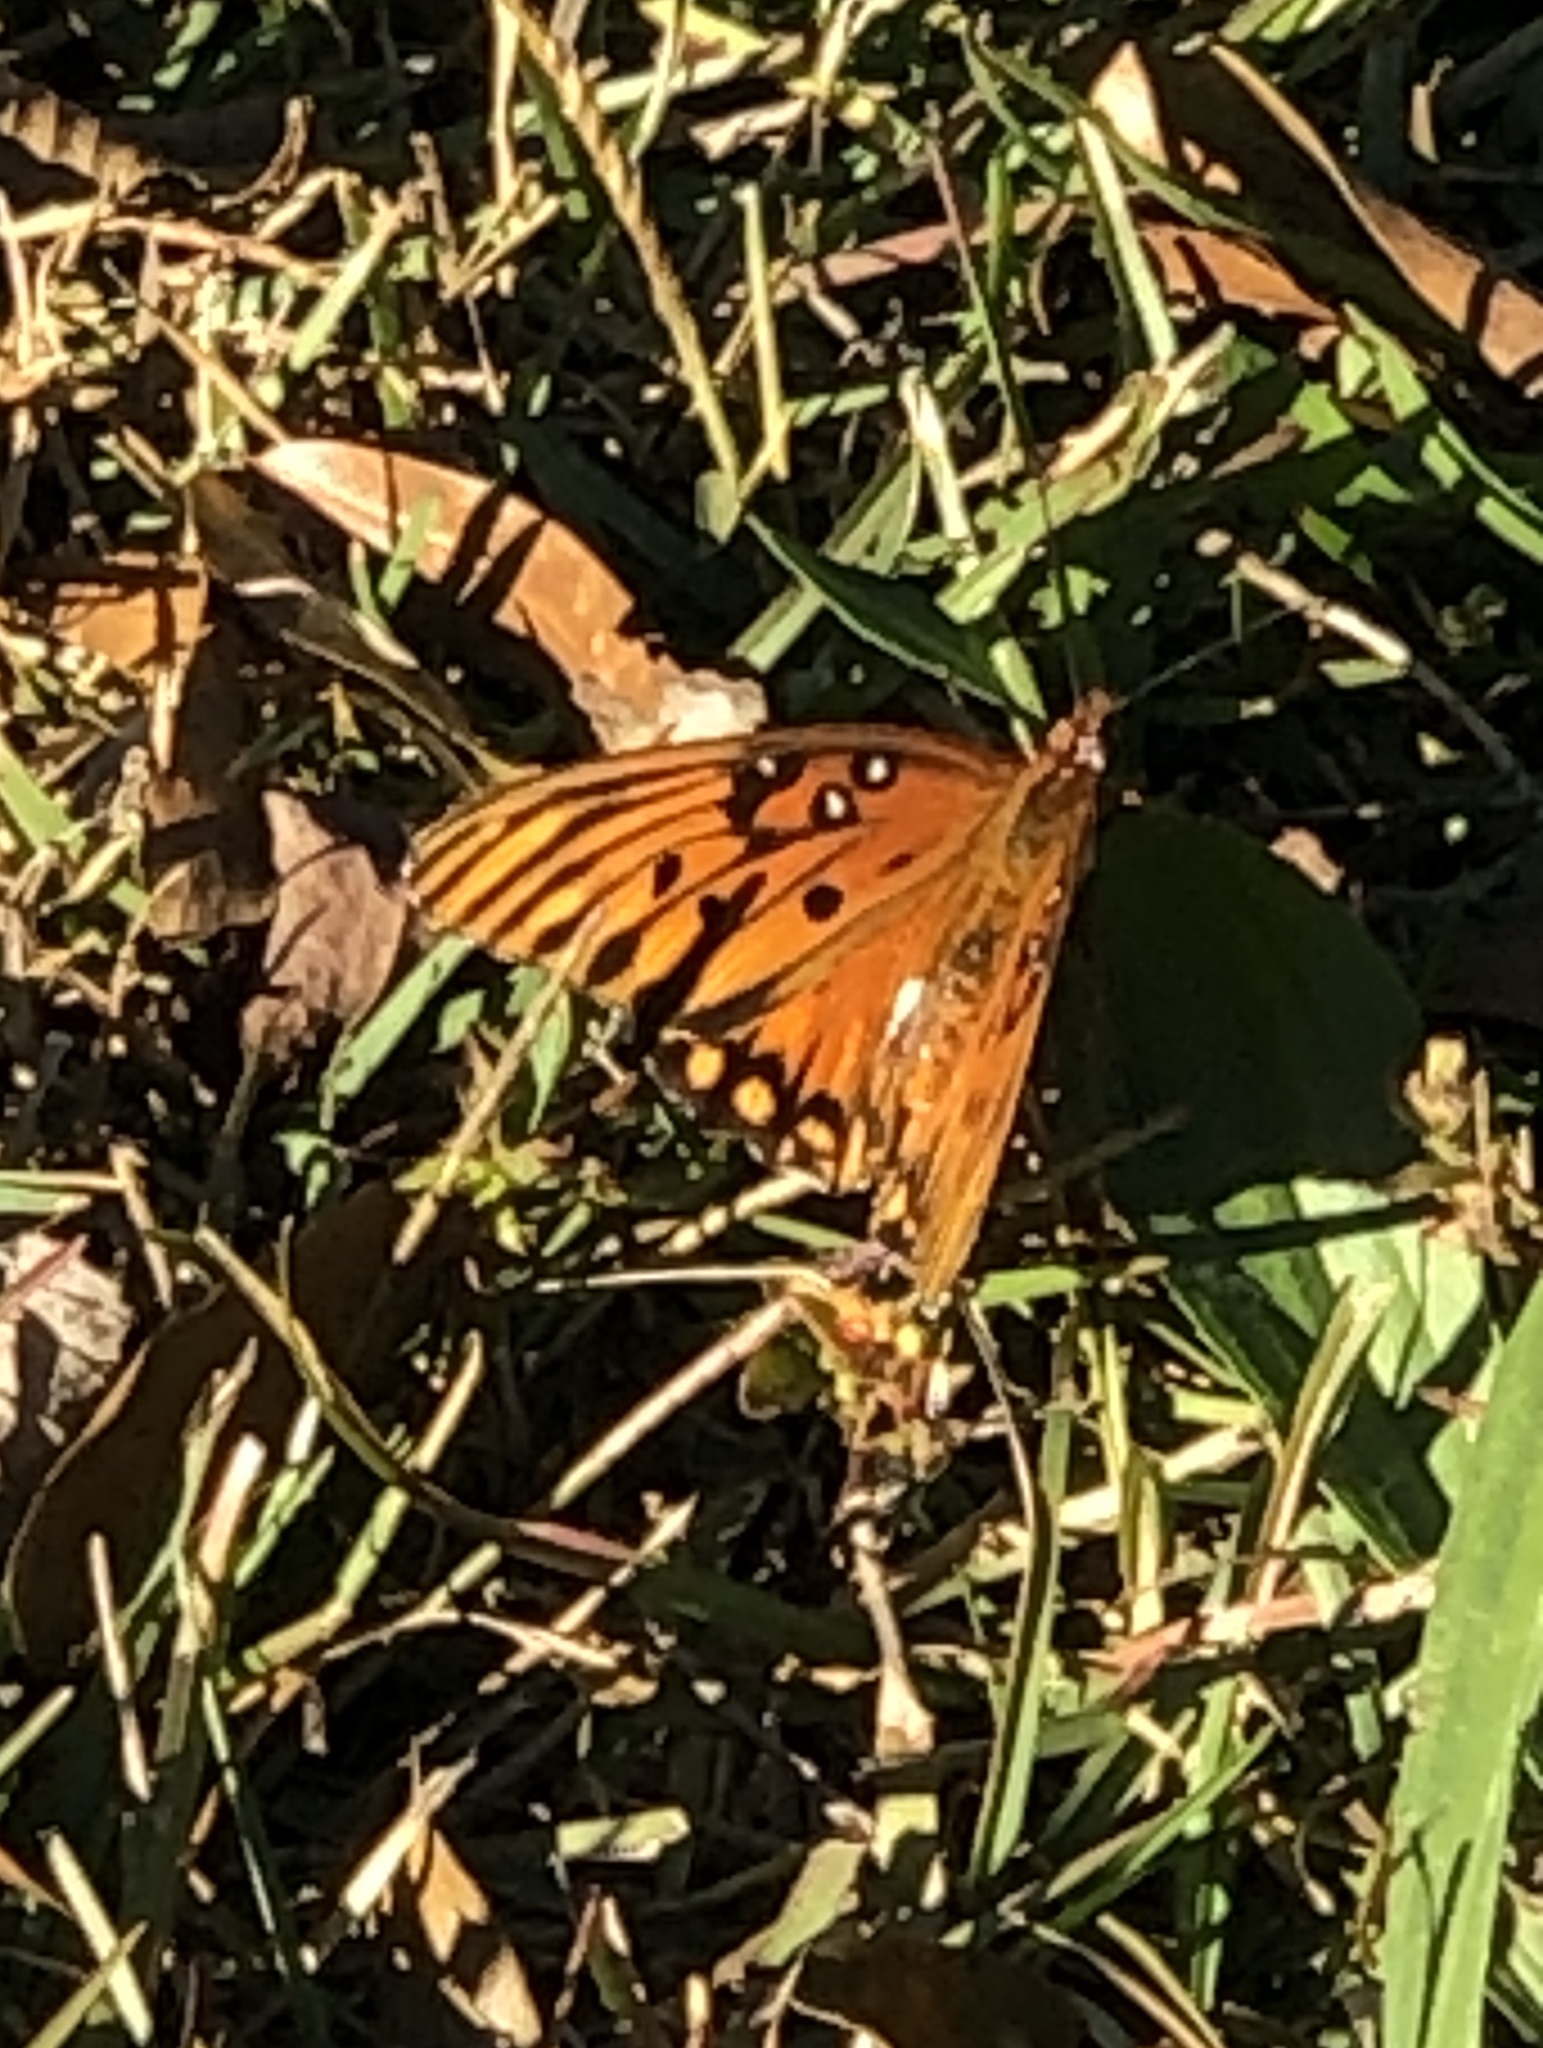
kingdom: Animalia
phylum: Arthropoda
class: Insecta
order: Lepidoptera
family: Nymphalidae
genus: Dione
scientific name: Dione vanillae
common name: Gulf fritillary
